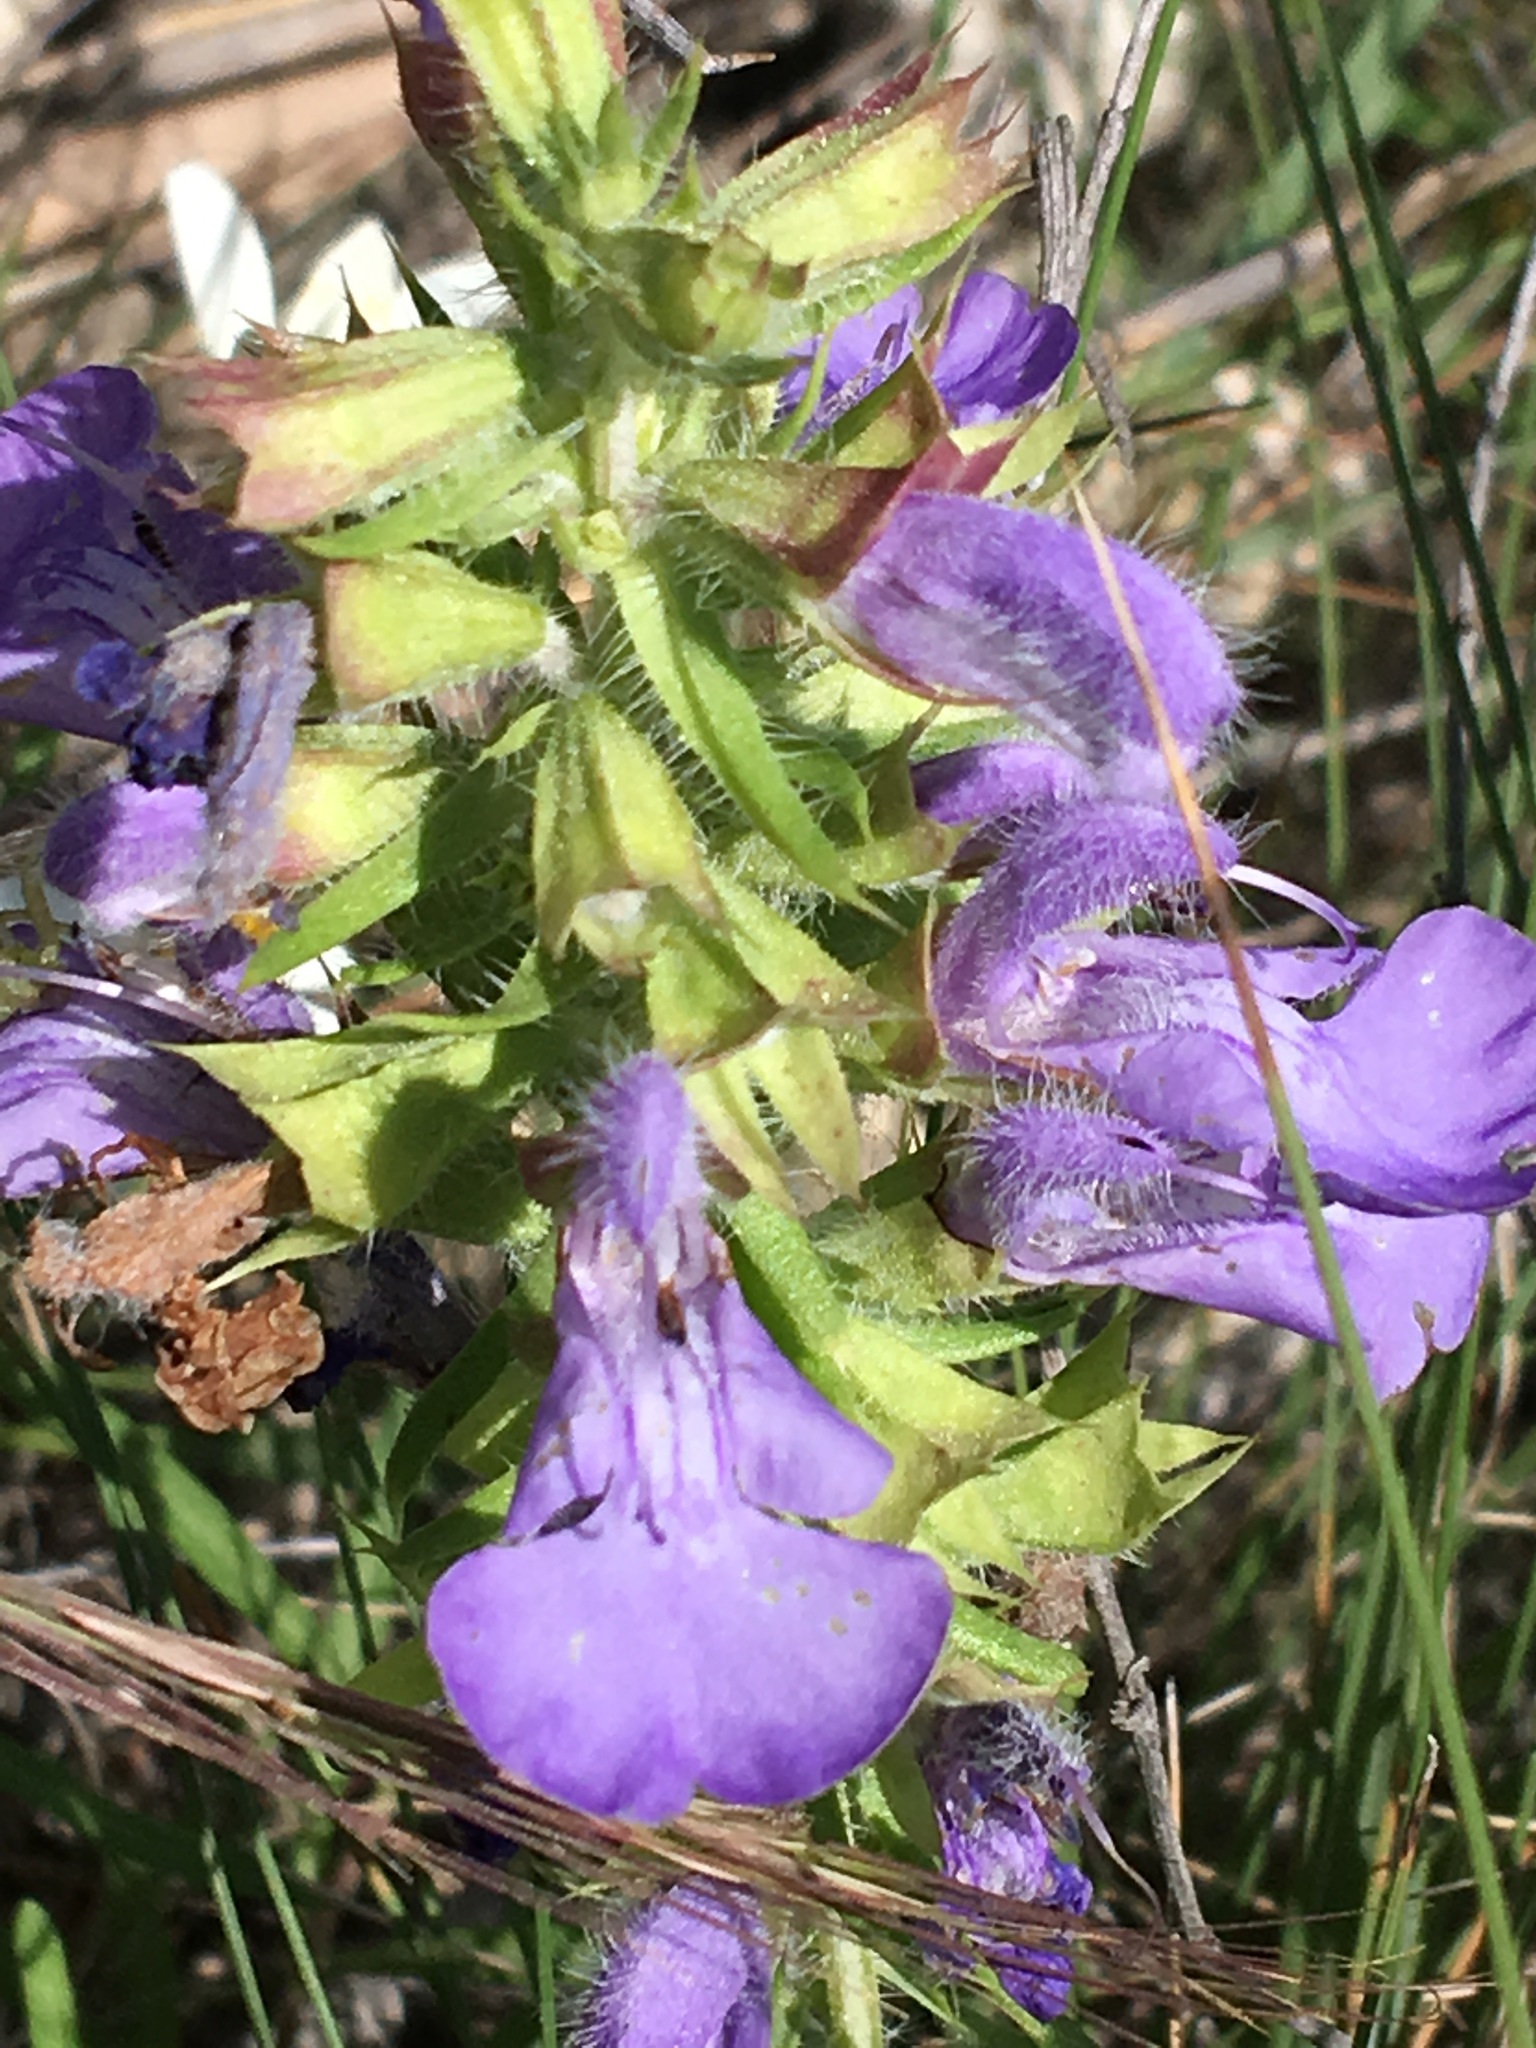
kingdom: Plantae
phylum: Tracheophyta
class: Magnoliopsida
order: Lamiales
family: Lamiaceae
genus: Salvia
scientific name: Salvia engelmannii
